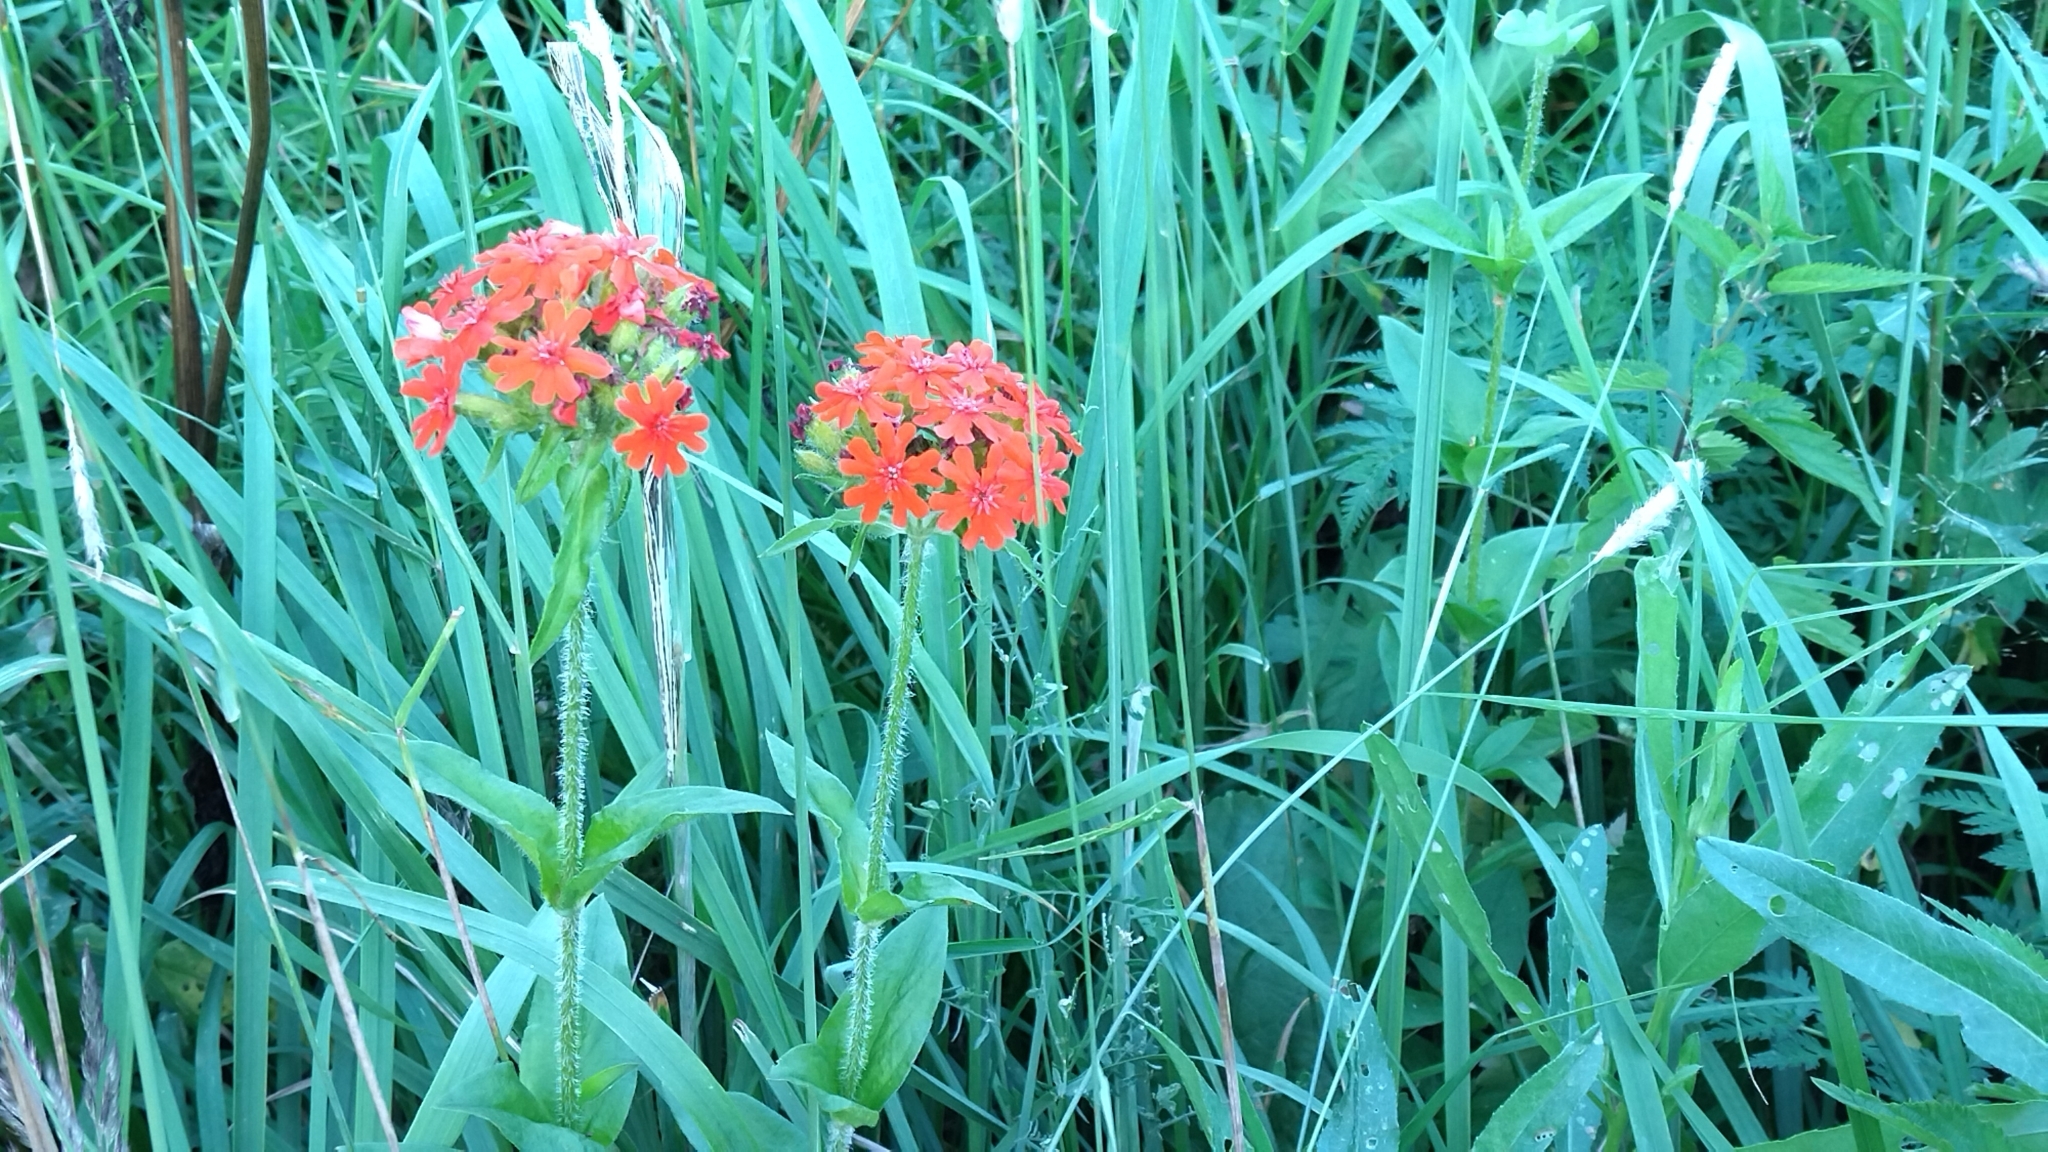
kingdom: Plantae
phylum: Tracheophyta
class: Magnoliopsida
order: Caryophyllales
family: Caryophyllaceae
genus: Silene
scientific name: Silene chalcedonica
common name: Maltese-cross
